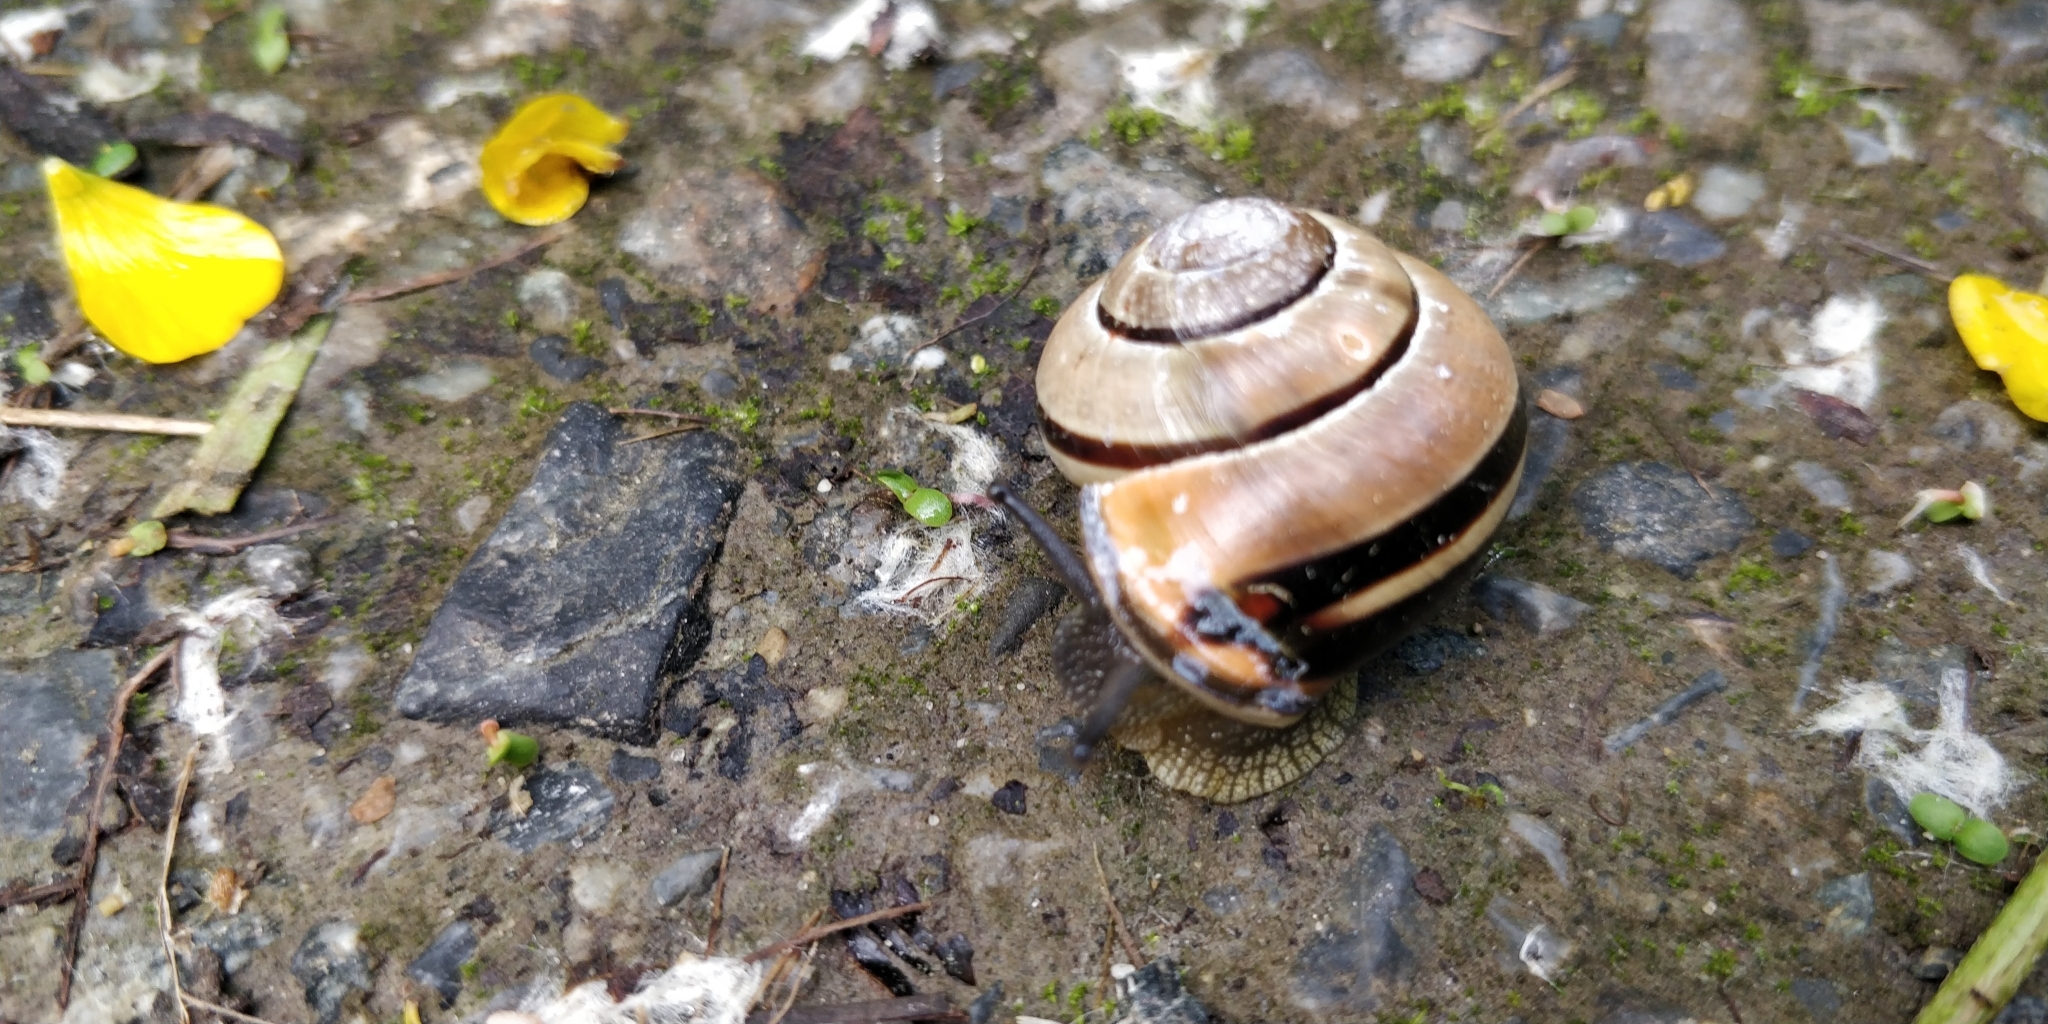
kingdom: Animalia
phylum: Mollusca
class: Gastropoda
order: Stylommatophora
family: Helicidae
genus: Cepaea
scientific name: Cepaea nemoralis
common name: Grovesnail
